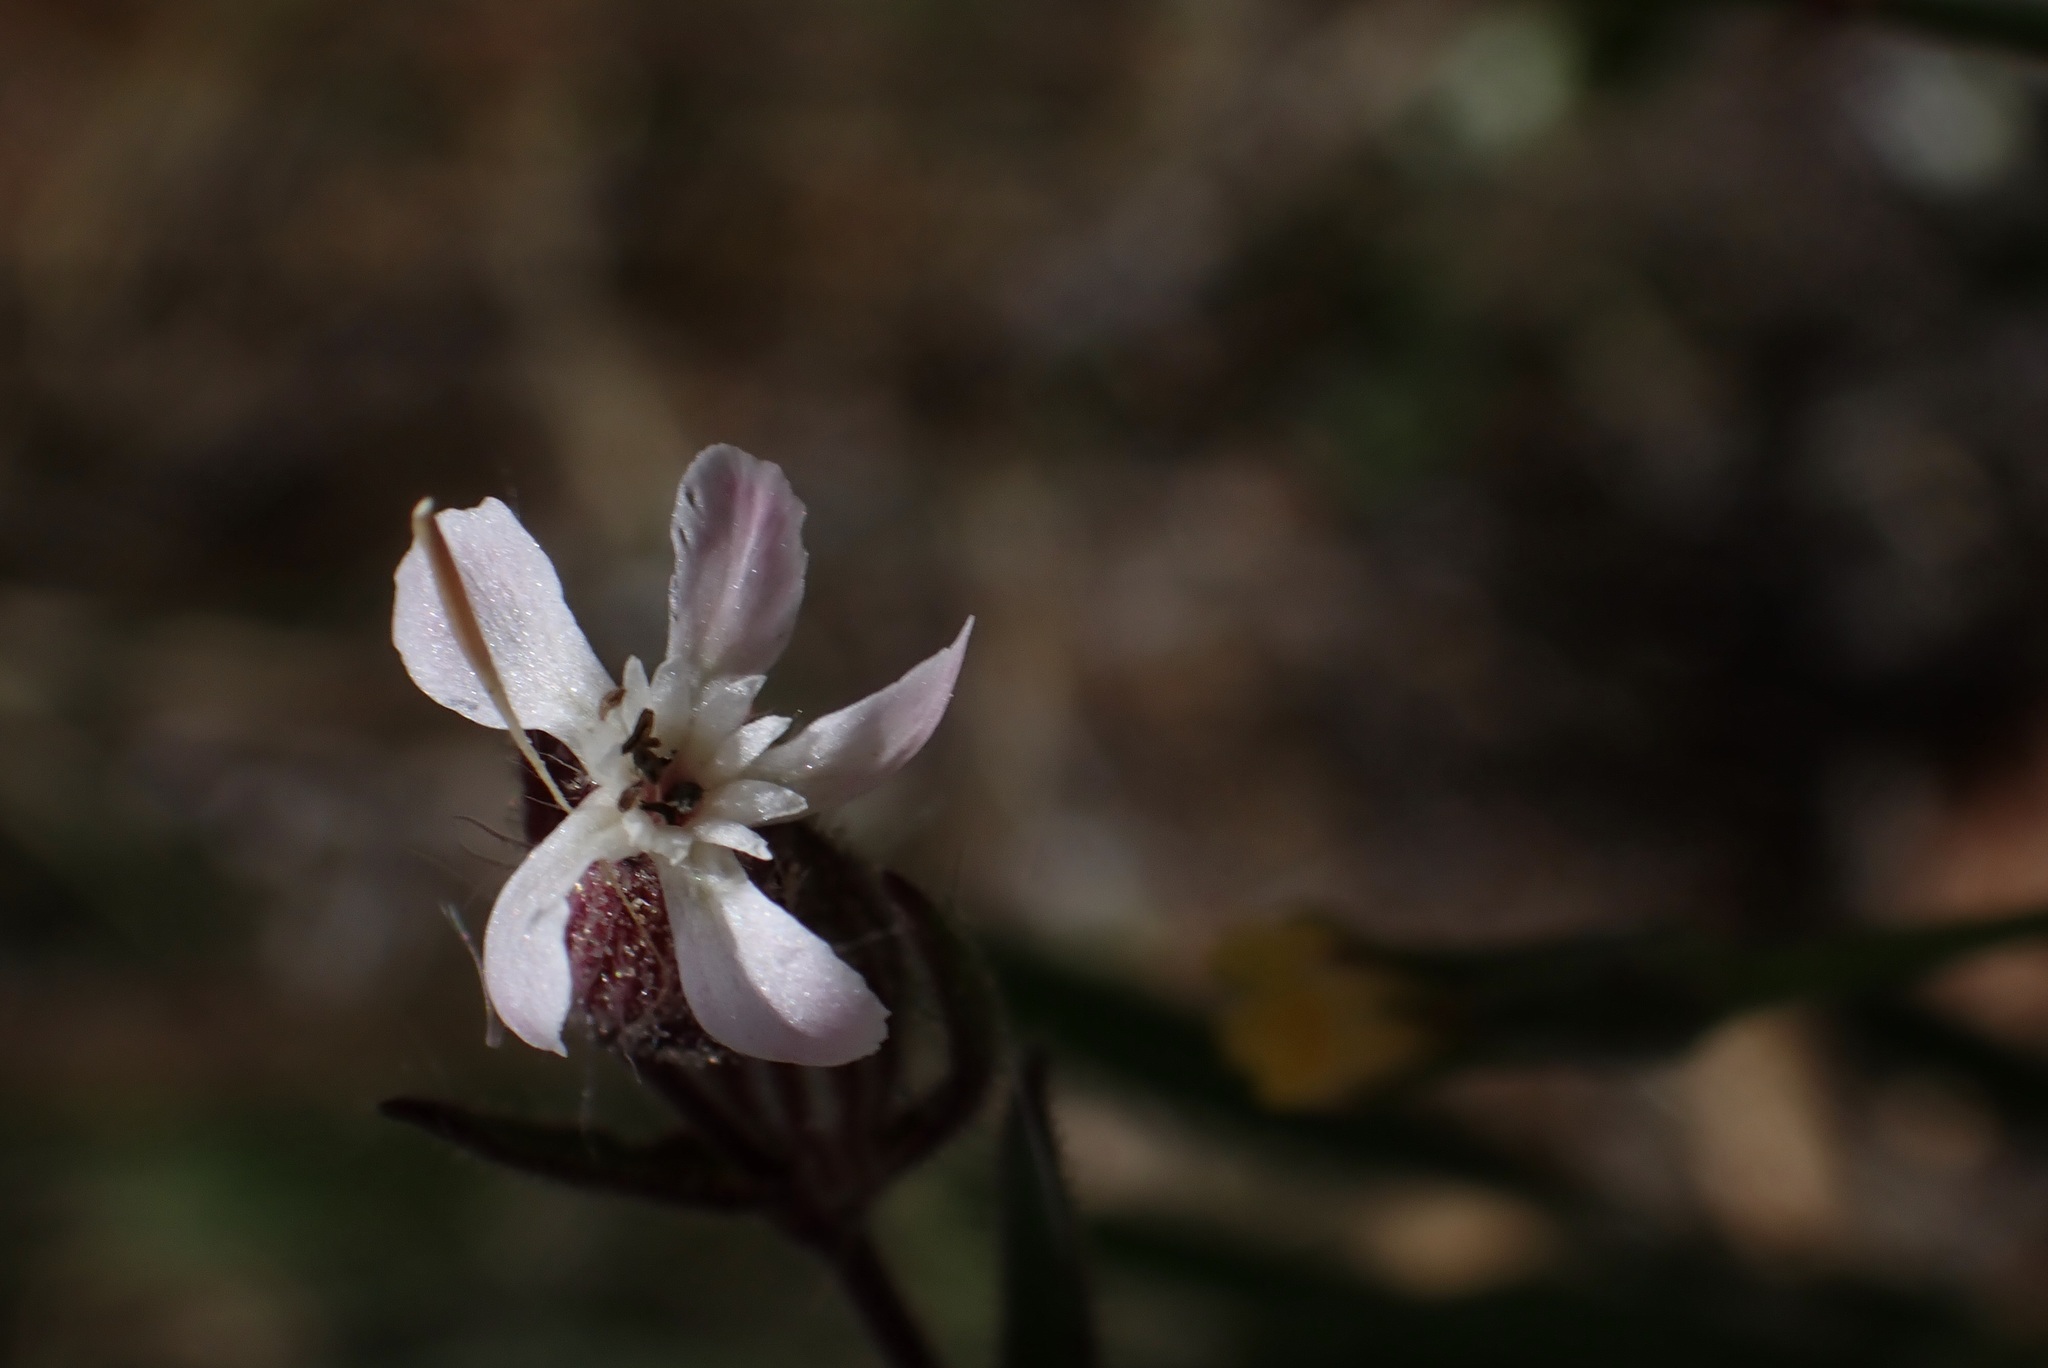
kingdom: Plantae
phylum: Tracheophyta
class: Magnoliopsida
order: Caryophyllales
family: Caryophyllaceae
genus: Silene
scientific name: Silene gallica
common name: Small-flowered catchfly
